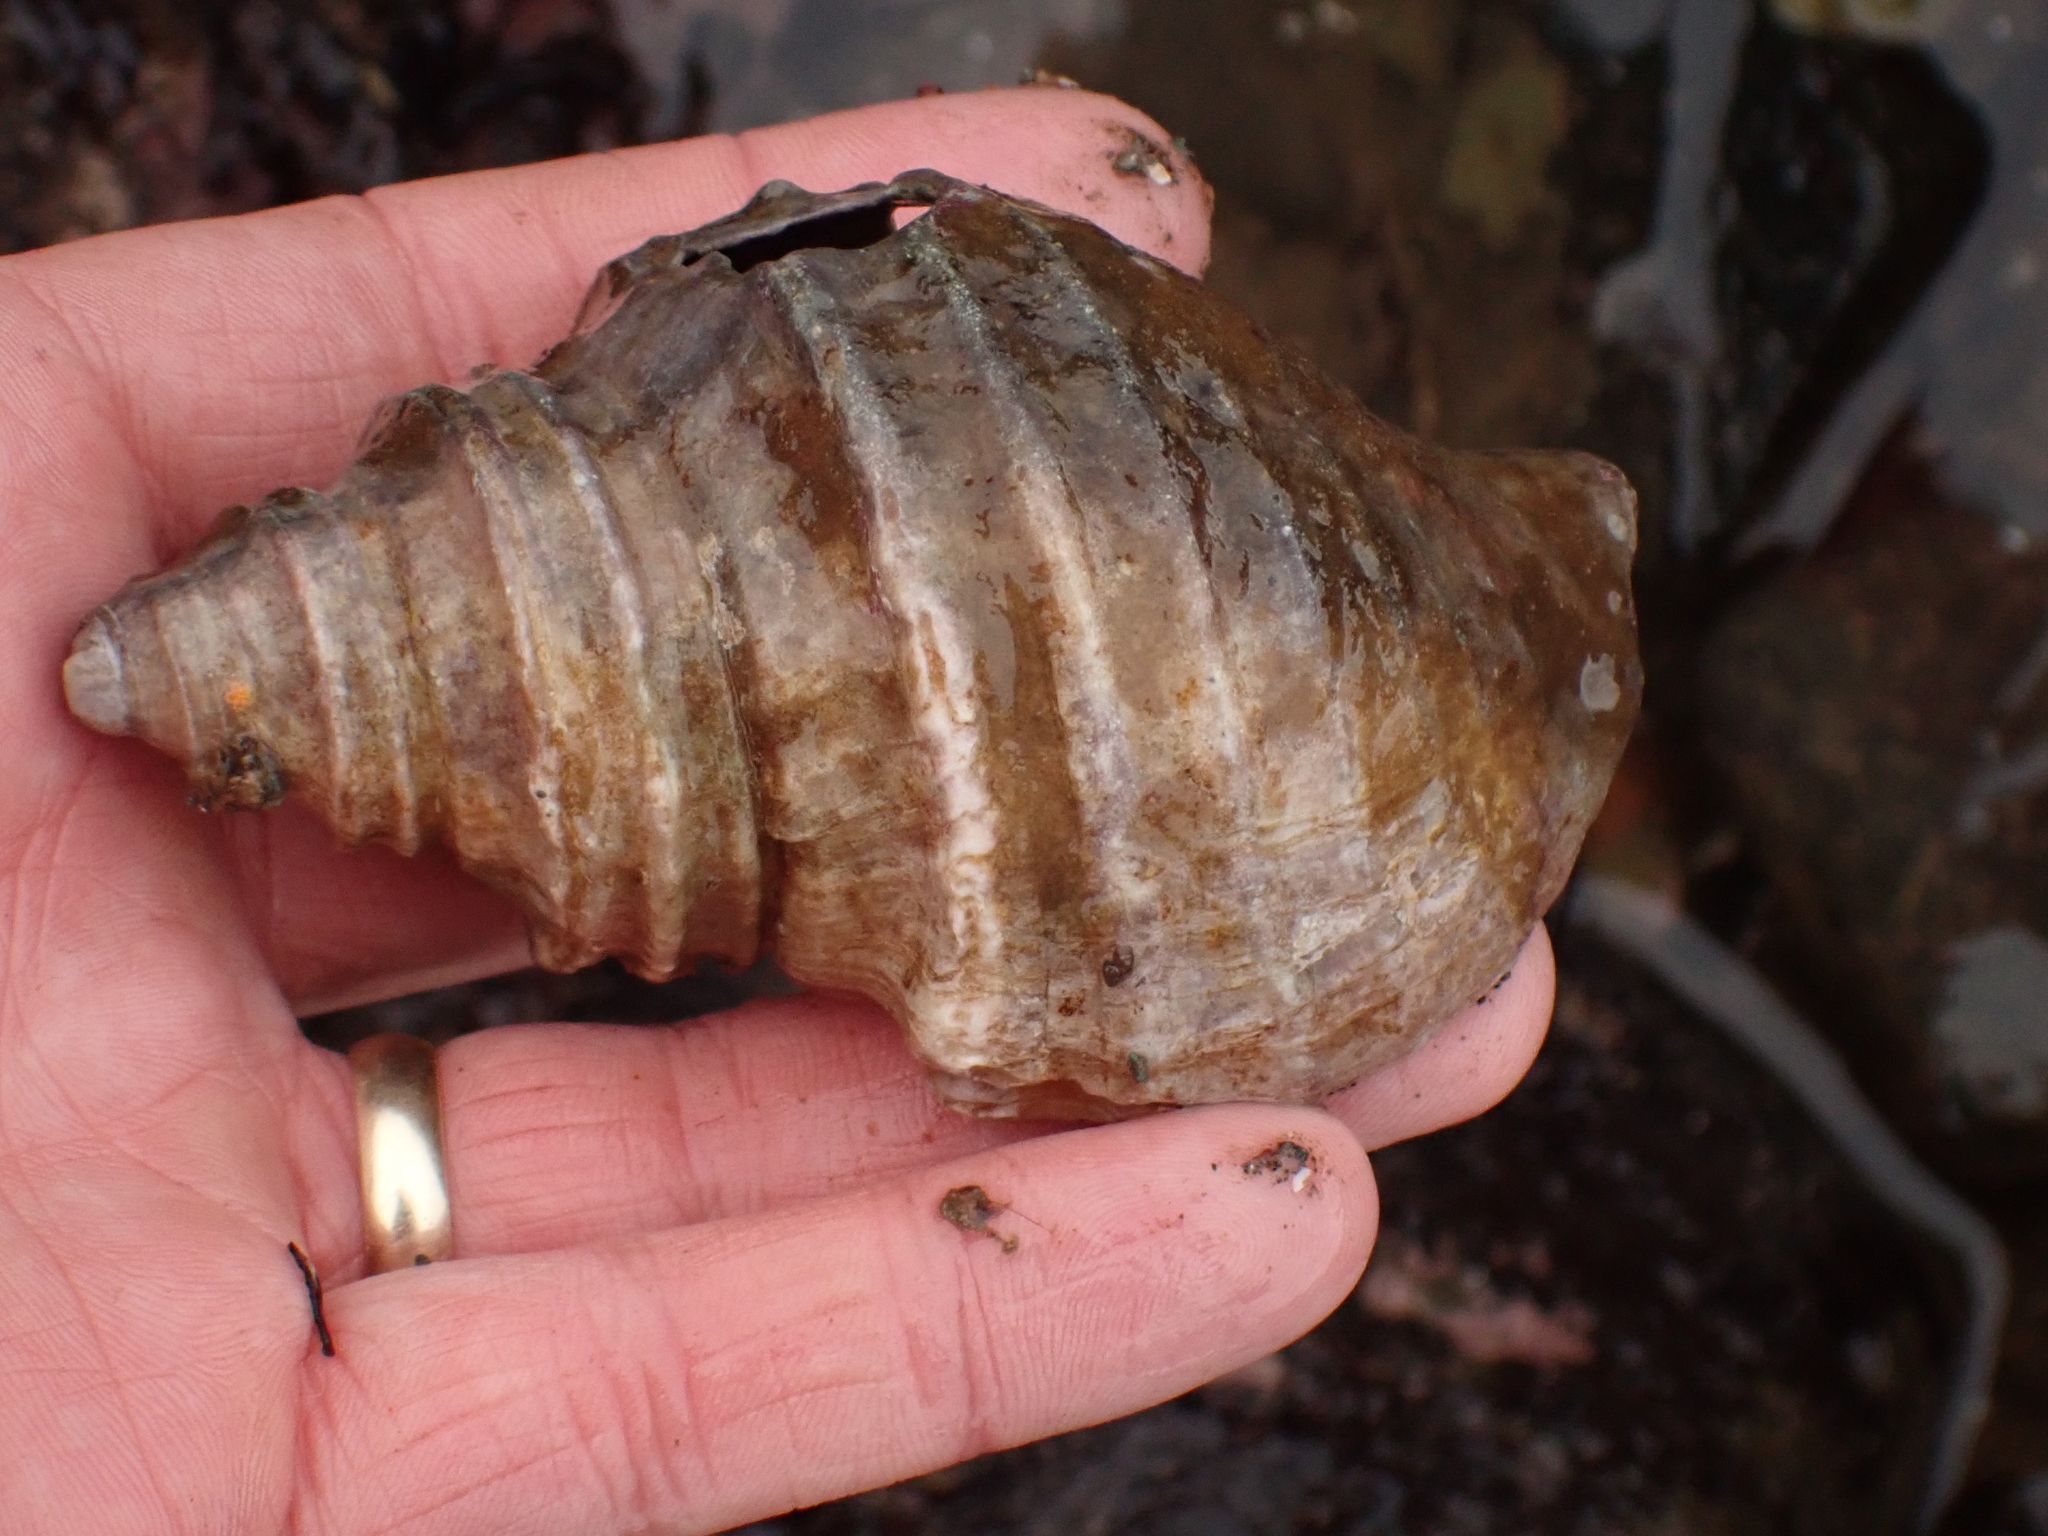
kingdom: Animalia
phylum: Mollusca
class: Gastropoda
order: Neogastropoda
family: Buccinidae
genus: Neptunea
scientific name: Neptunea decemcostata
